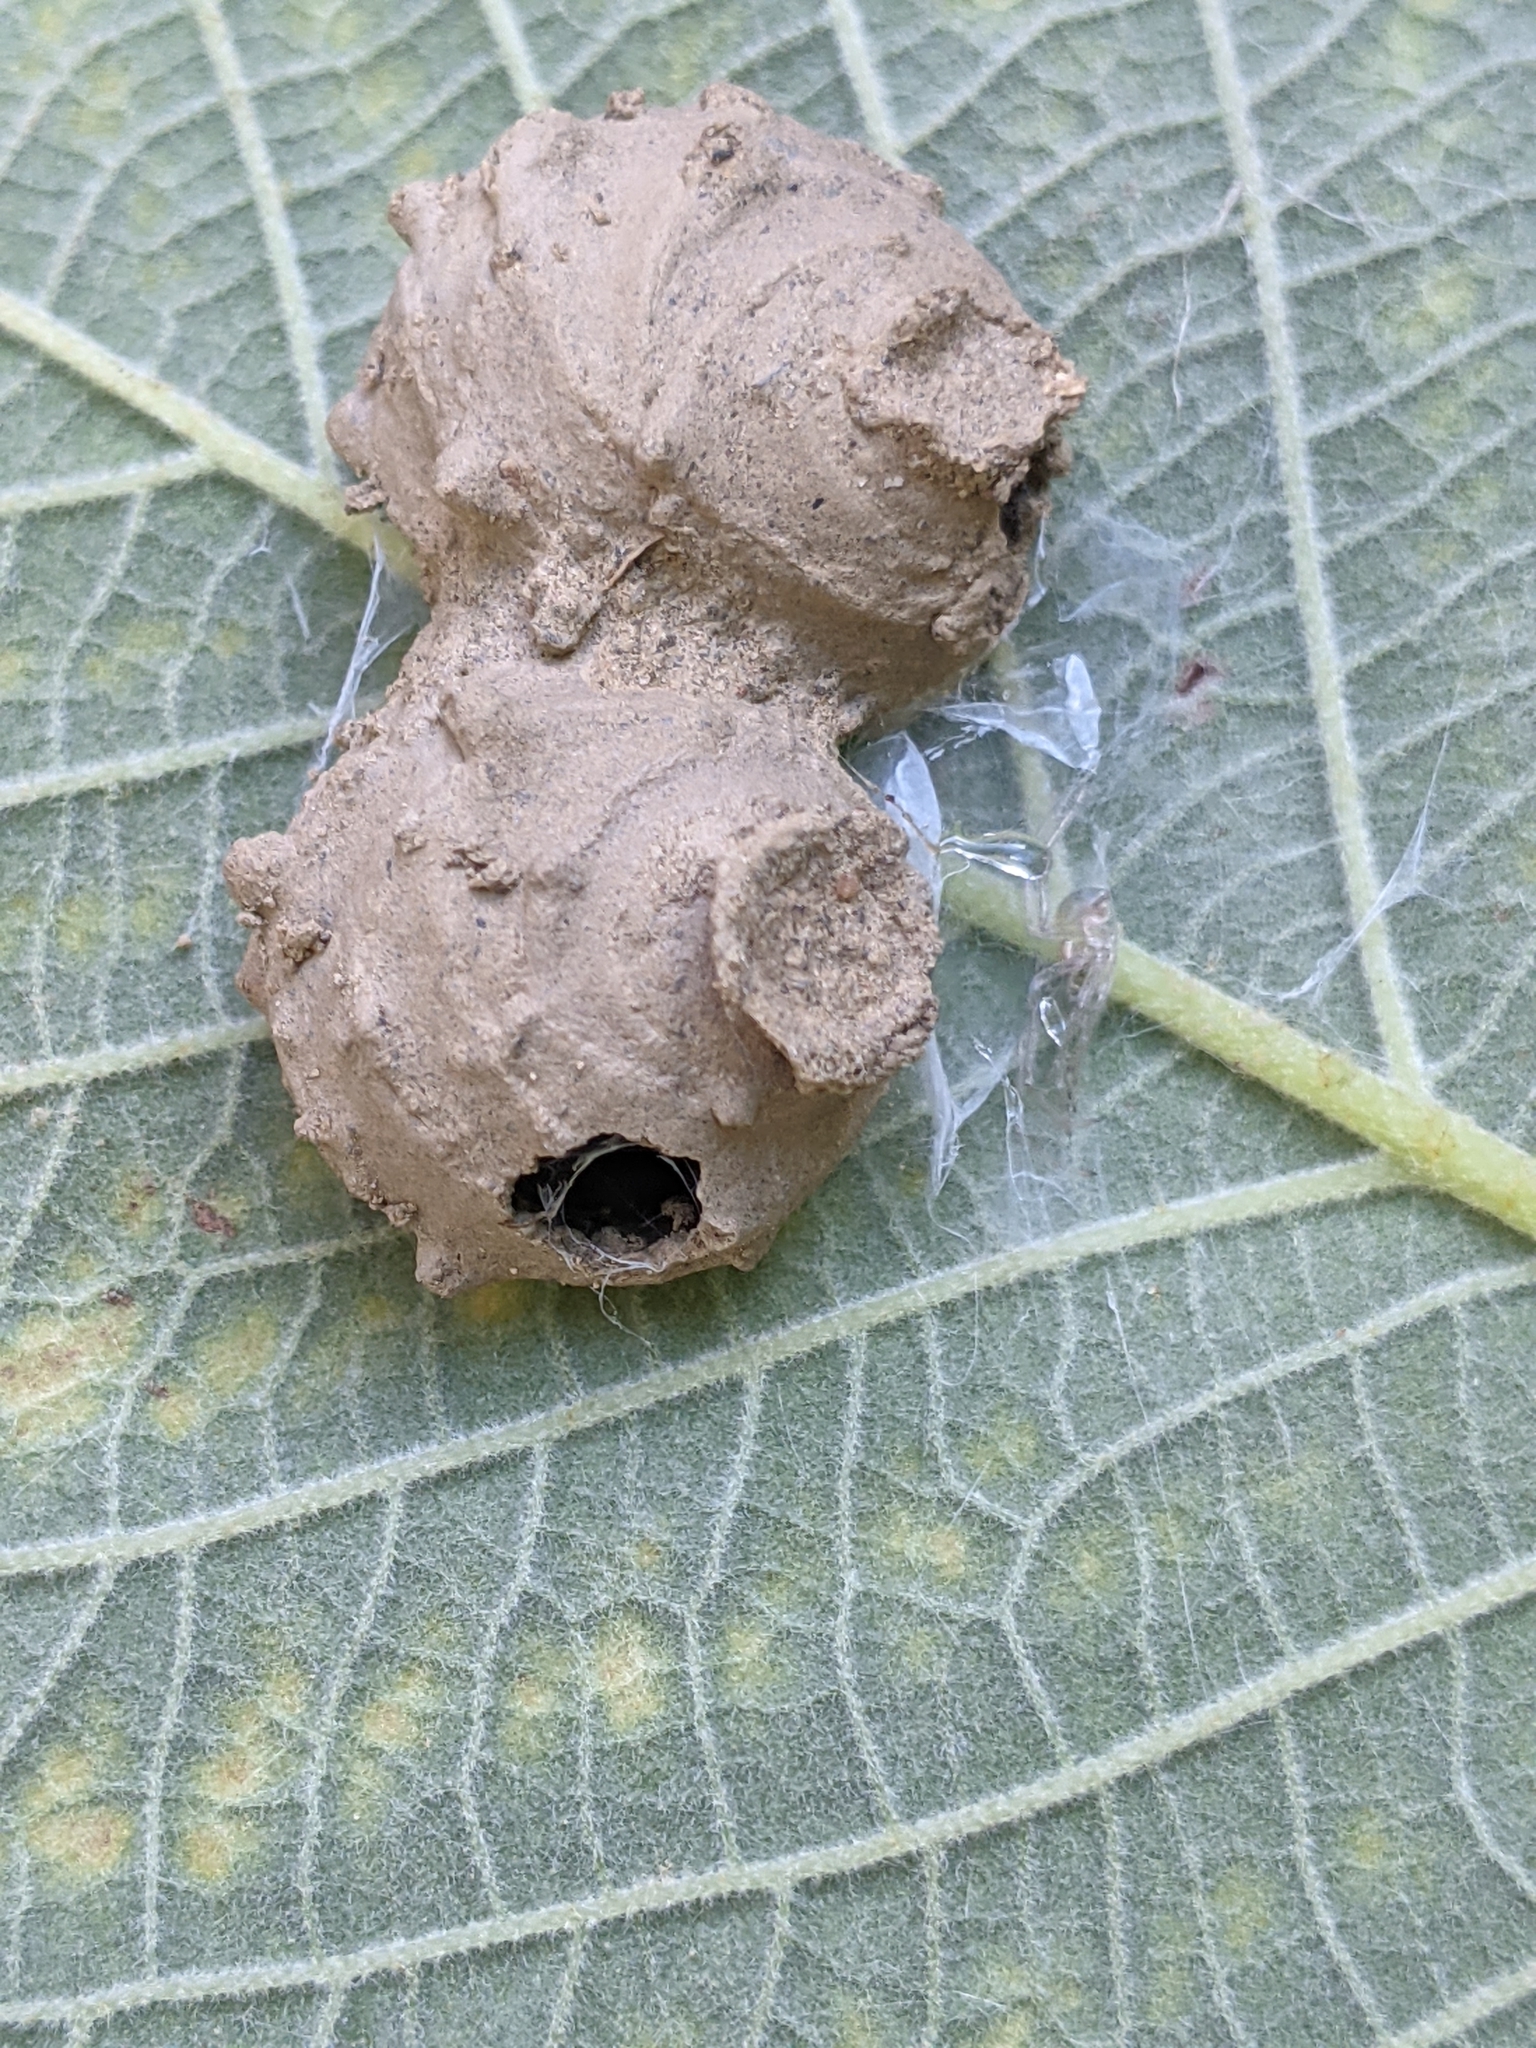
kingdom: Animalia
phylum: Arthropoda
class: Insecta
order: Hymenoptera
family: Vespidae
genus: Eumenes
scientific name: Eumenes
